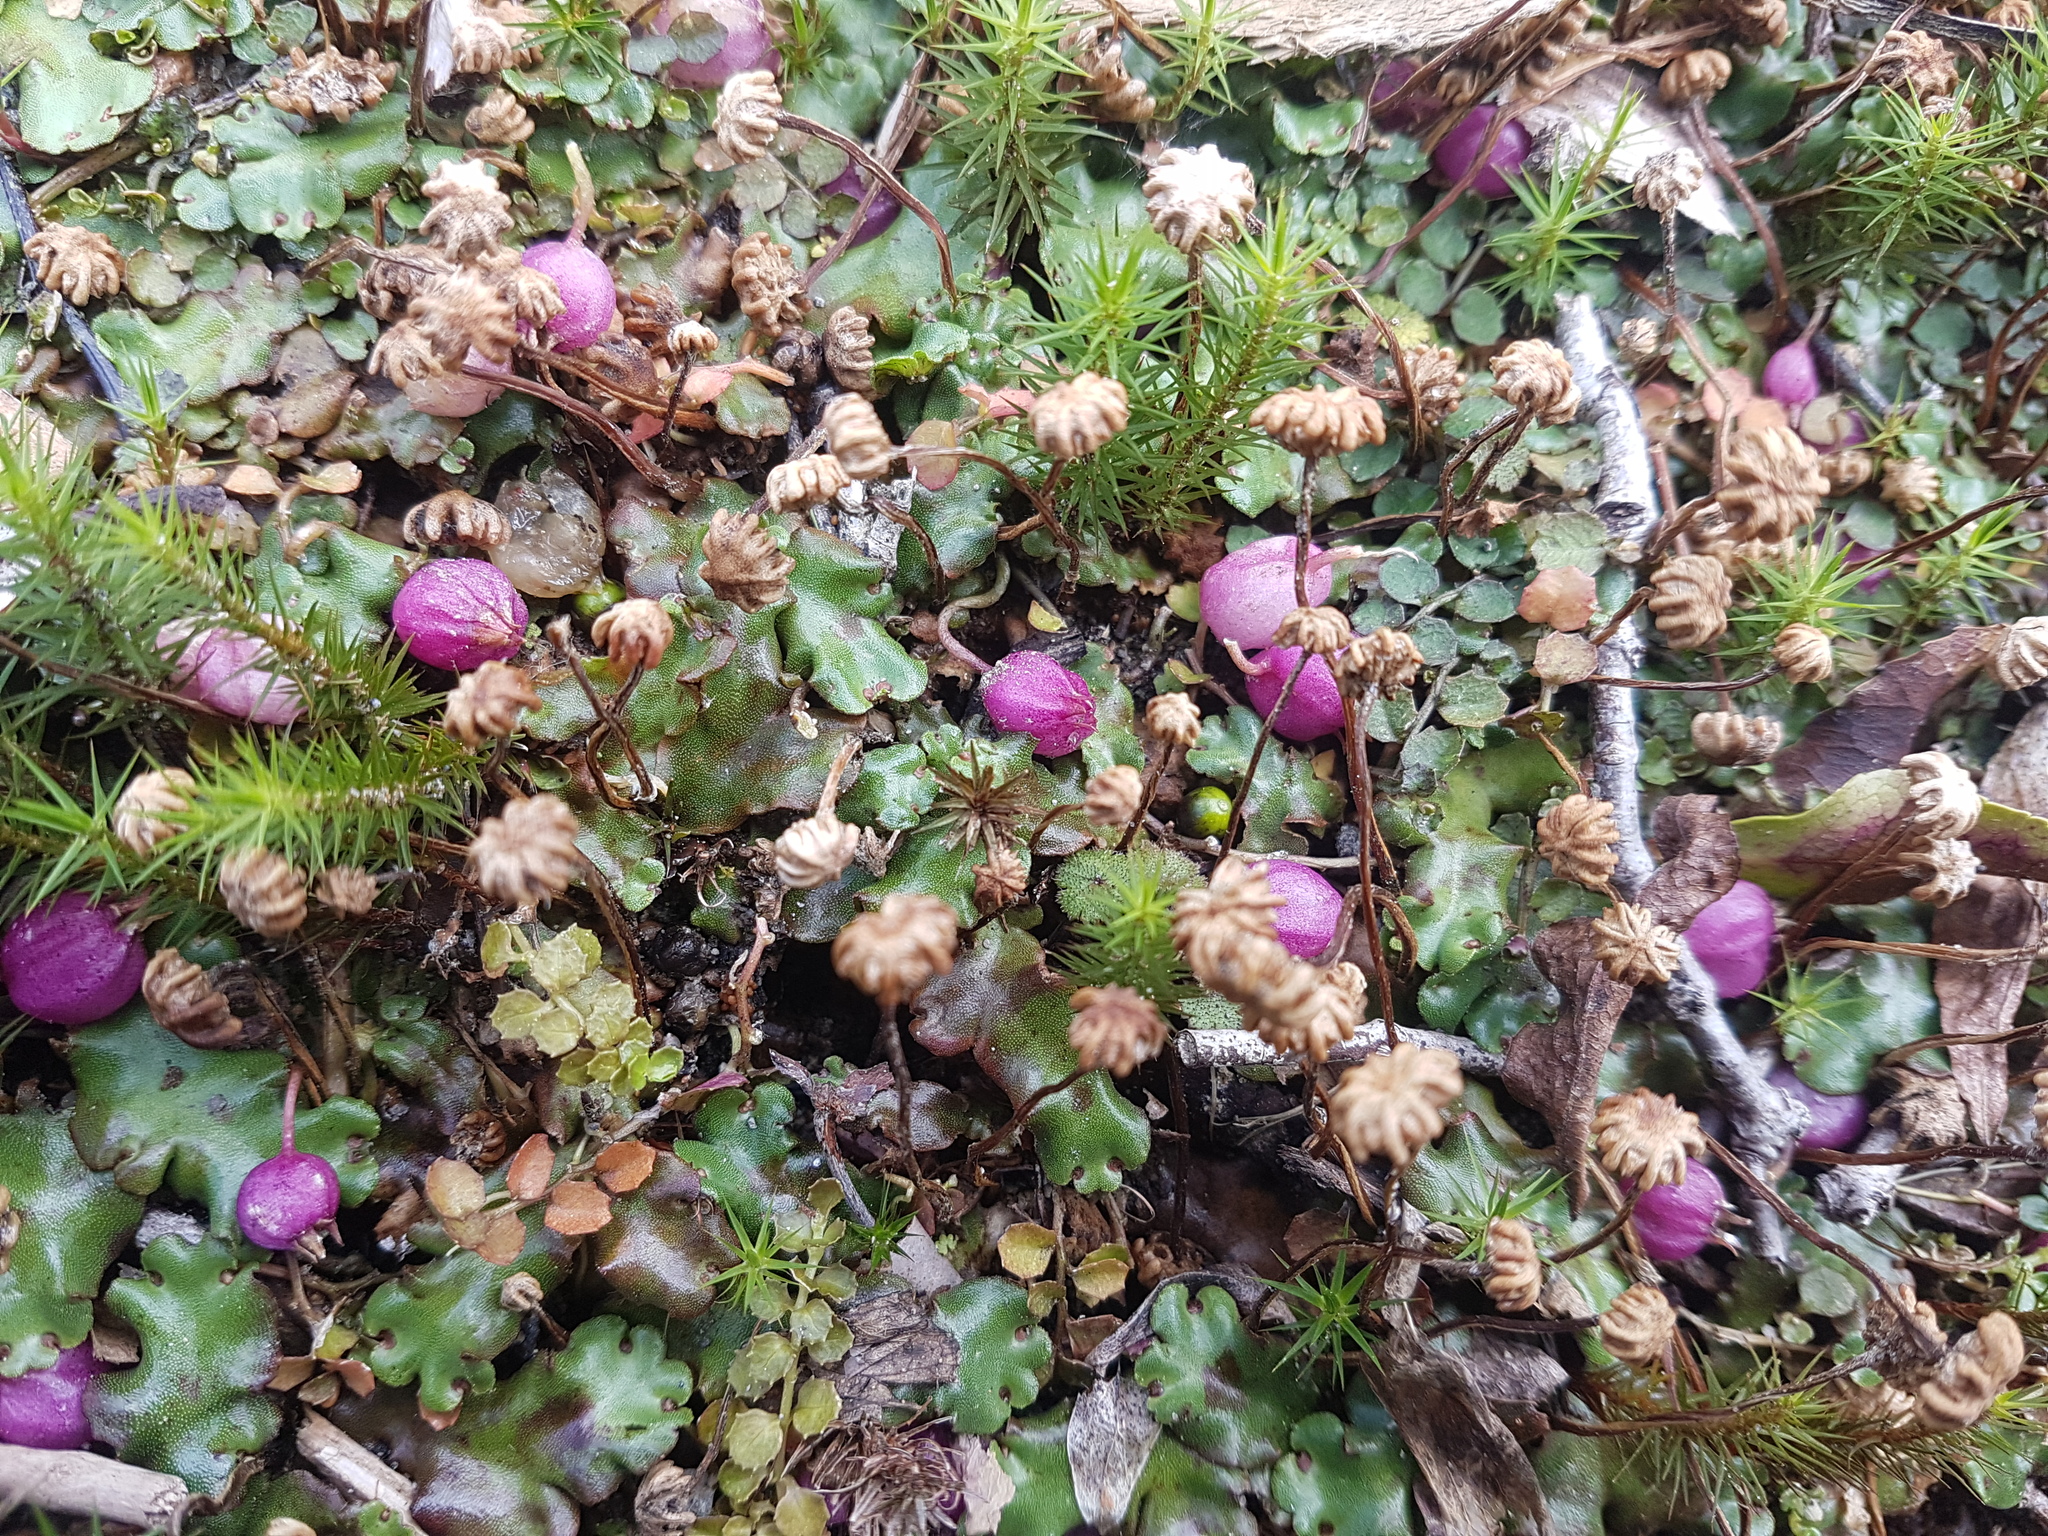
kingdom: Plantae
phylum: Tracheophyta
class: Magnoliopsida
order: Asterales
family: Campanulaceae
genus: Lobelia
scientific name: Lobelia angulata
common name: Lawn lobelia
